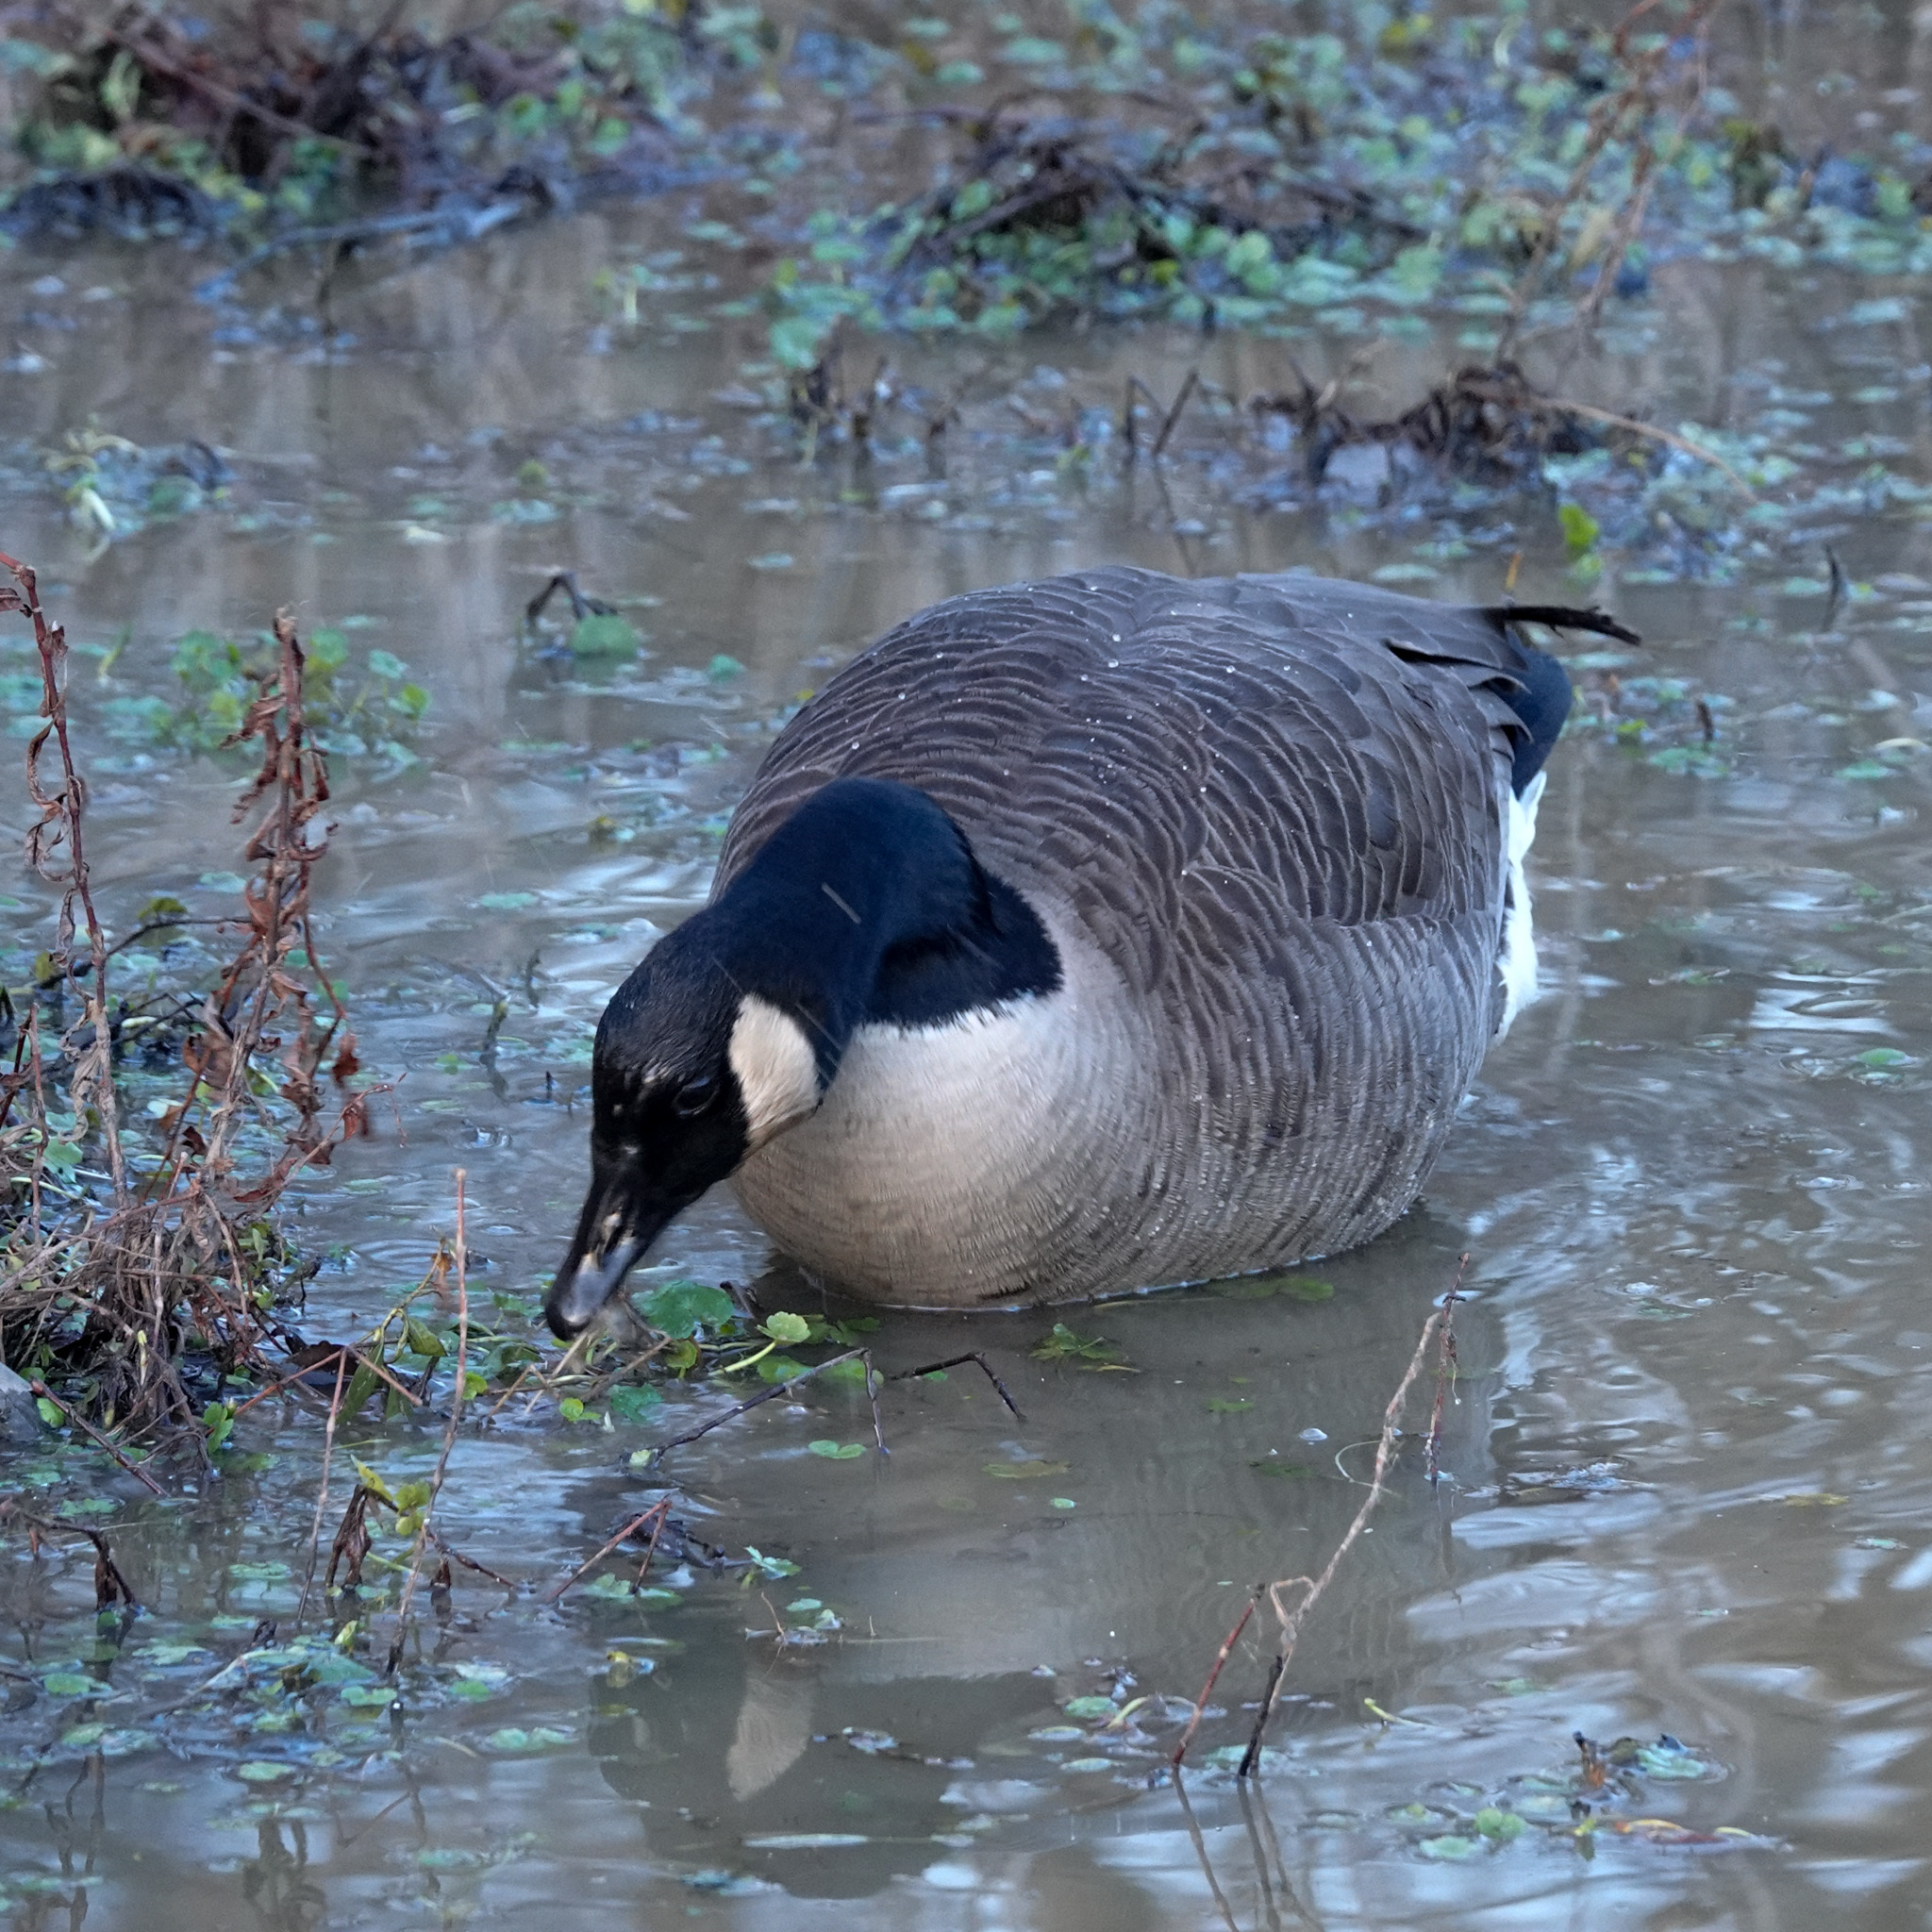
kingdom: Animalia
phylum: Chordata
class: Aves
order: Anseriformes
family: Anatidae
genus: Branta
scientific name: Branta canadensis
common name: Canada goose
